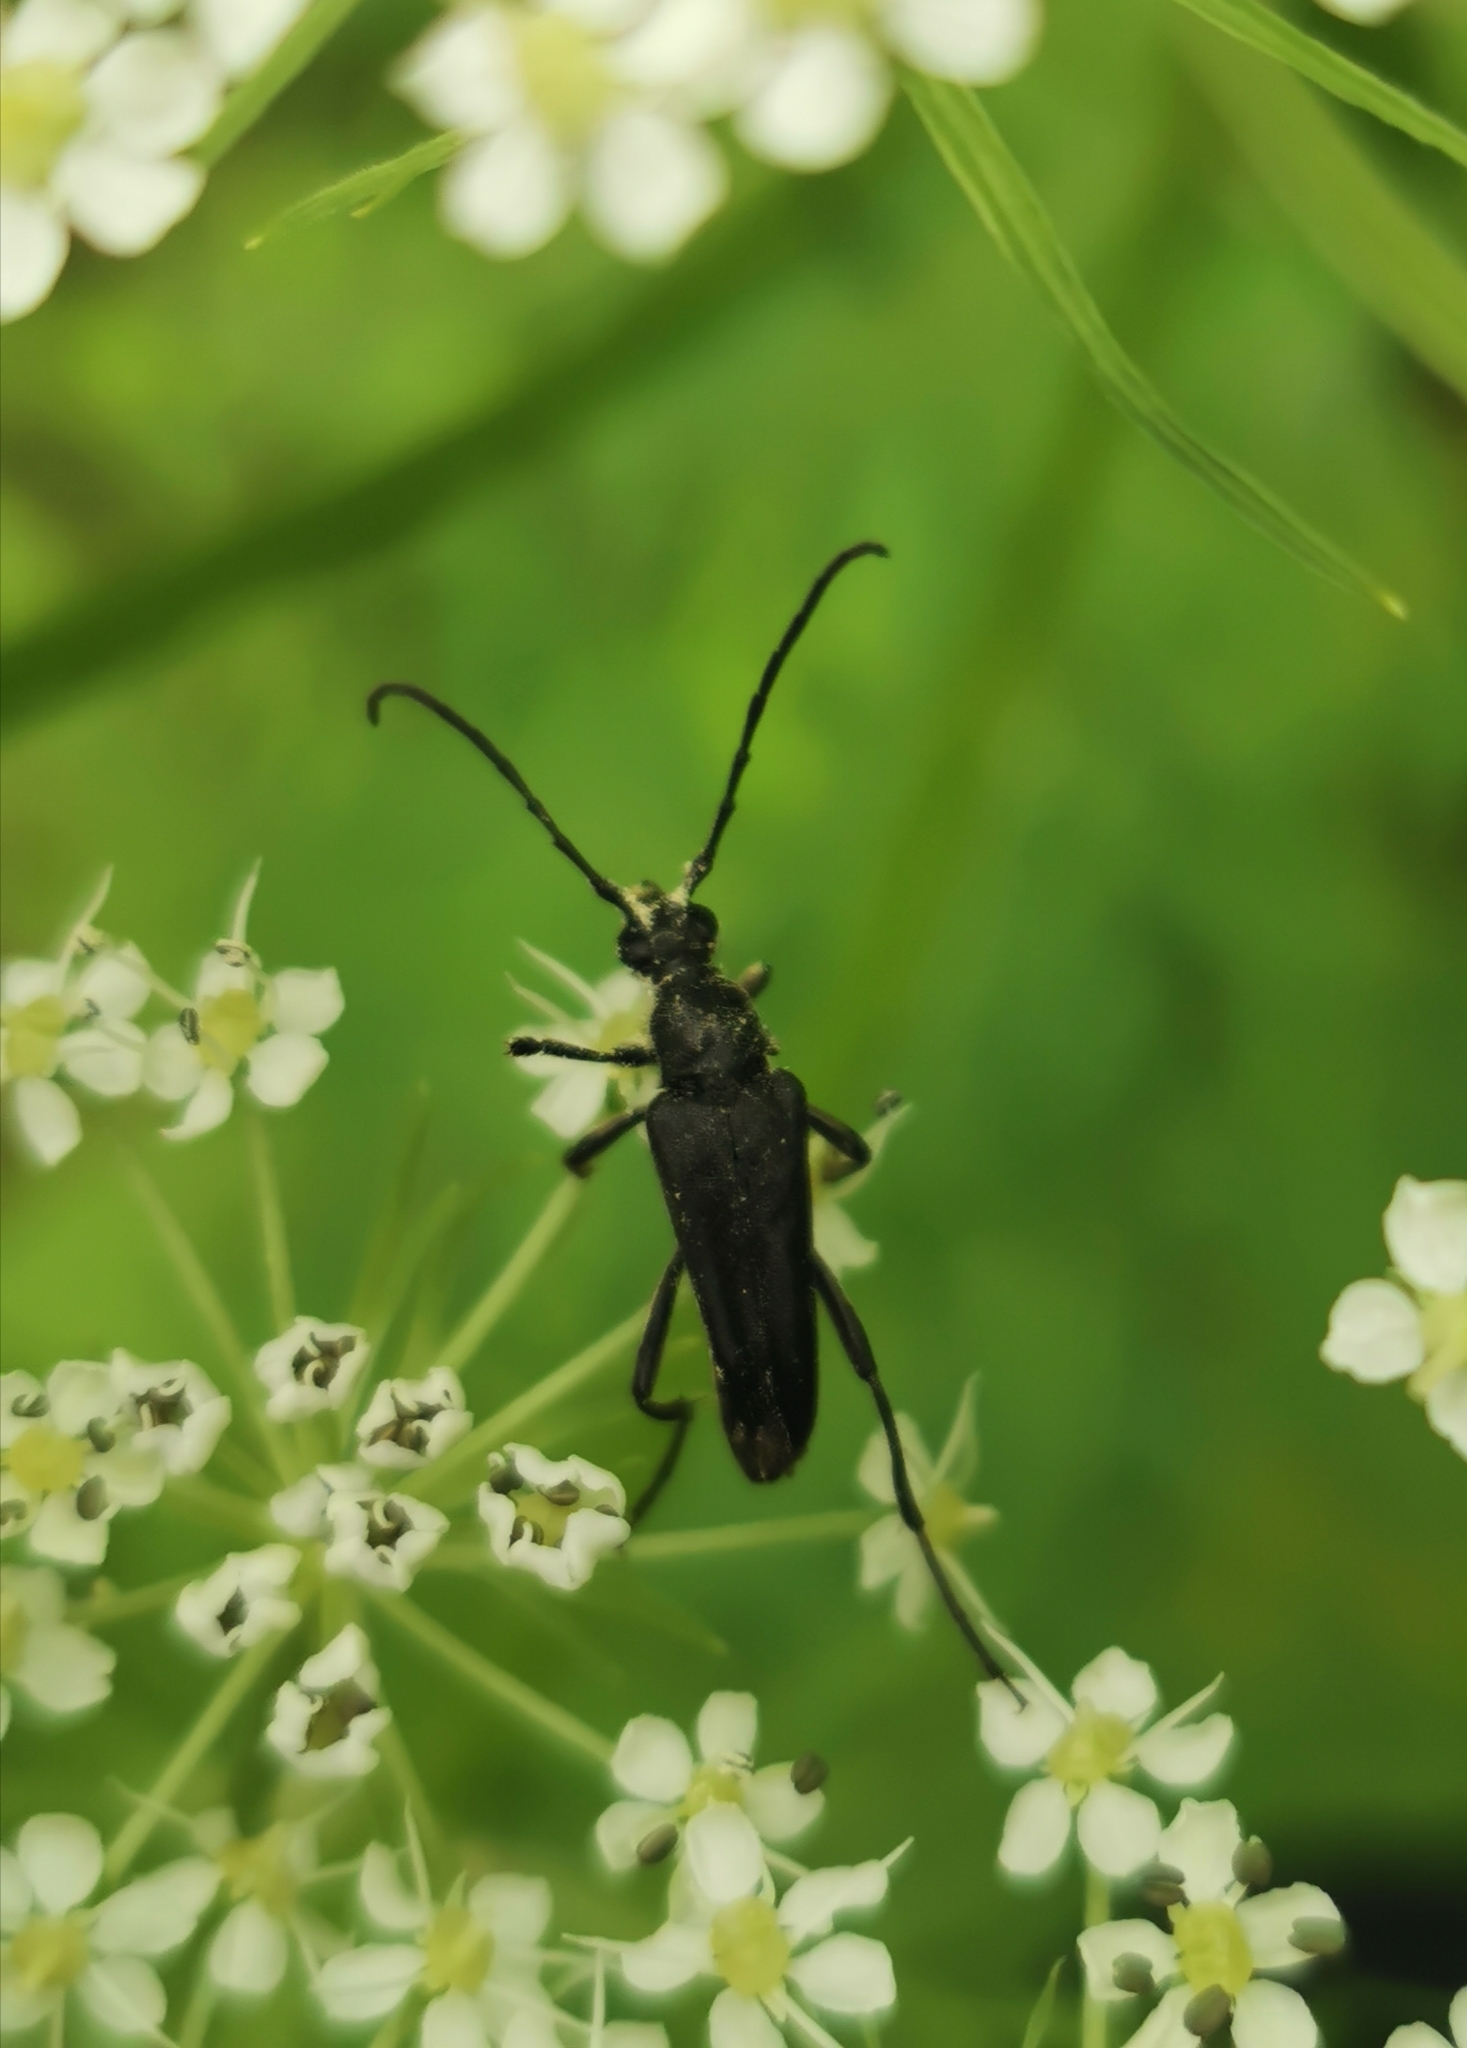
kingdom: Animalia
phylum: Arthropoda
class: Insecta
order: Coleoptera
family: Cerambycidae
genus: Leptura
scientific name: Leptura aethiops
